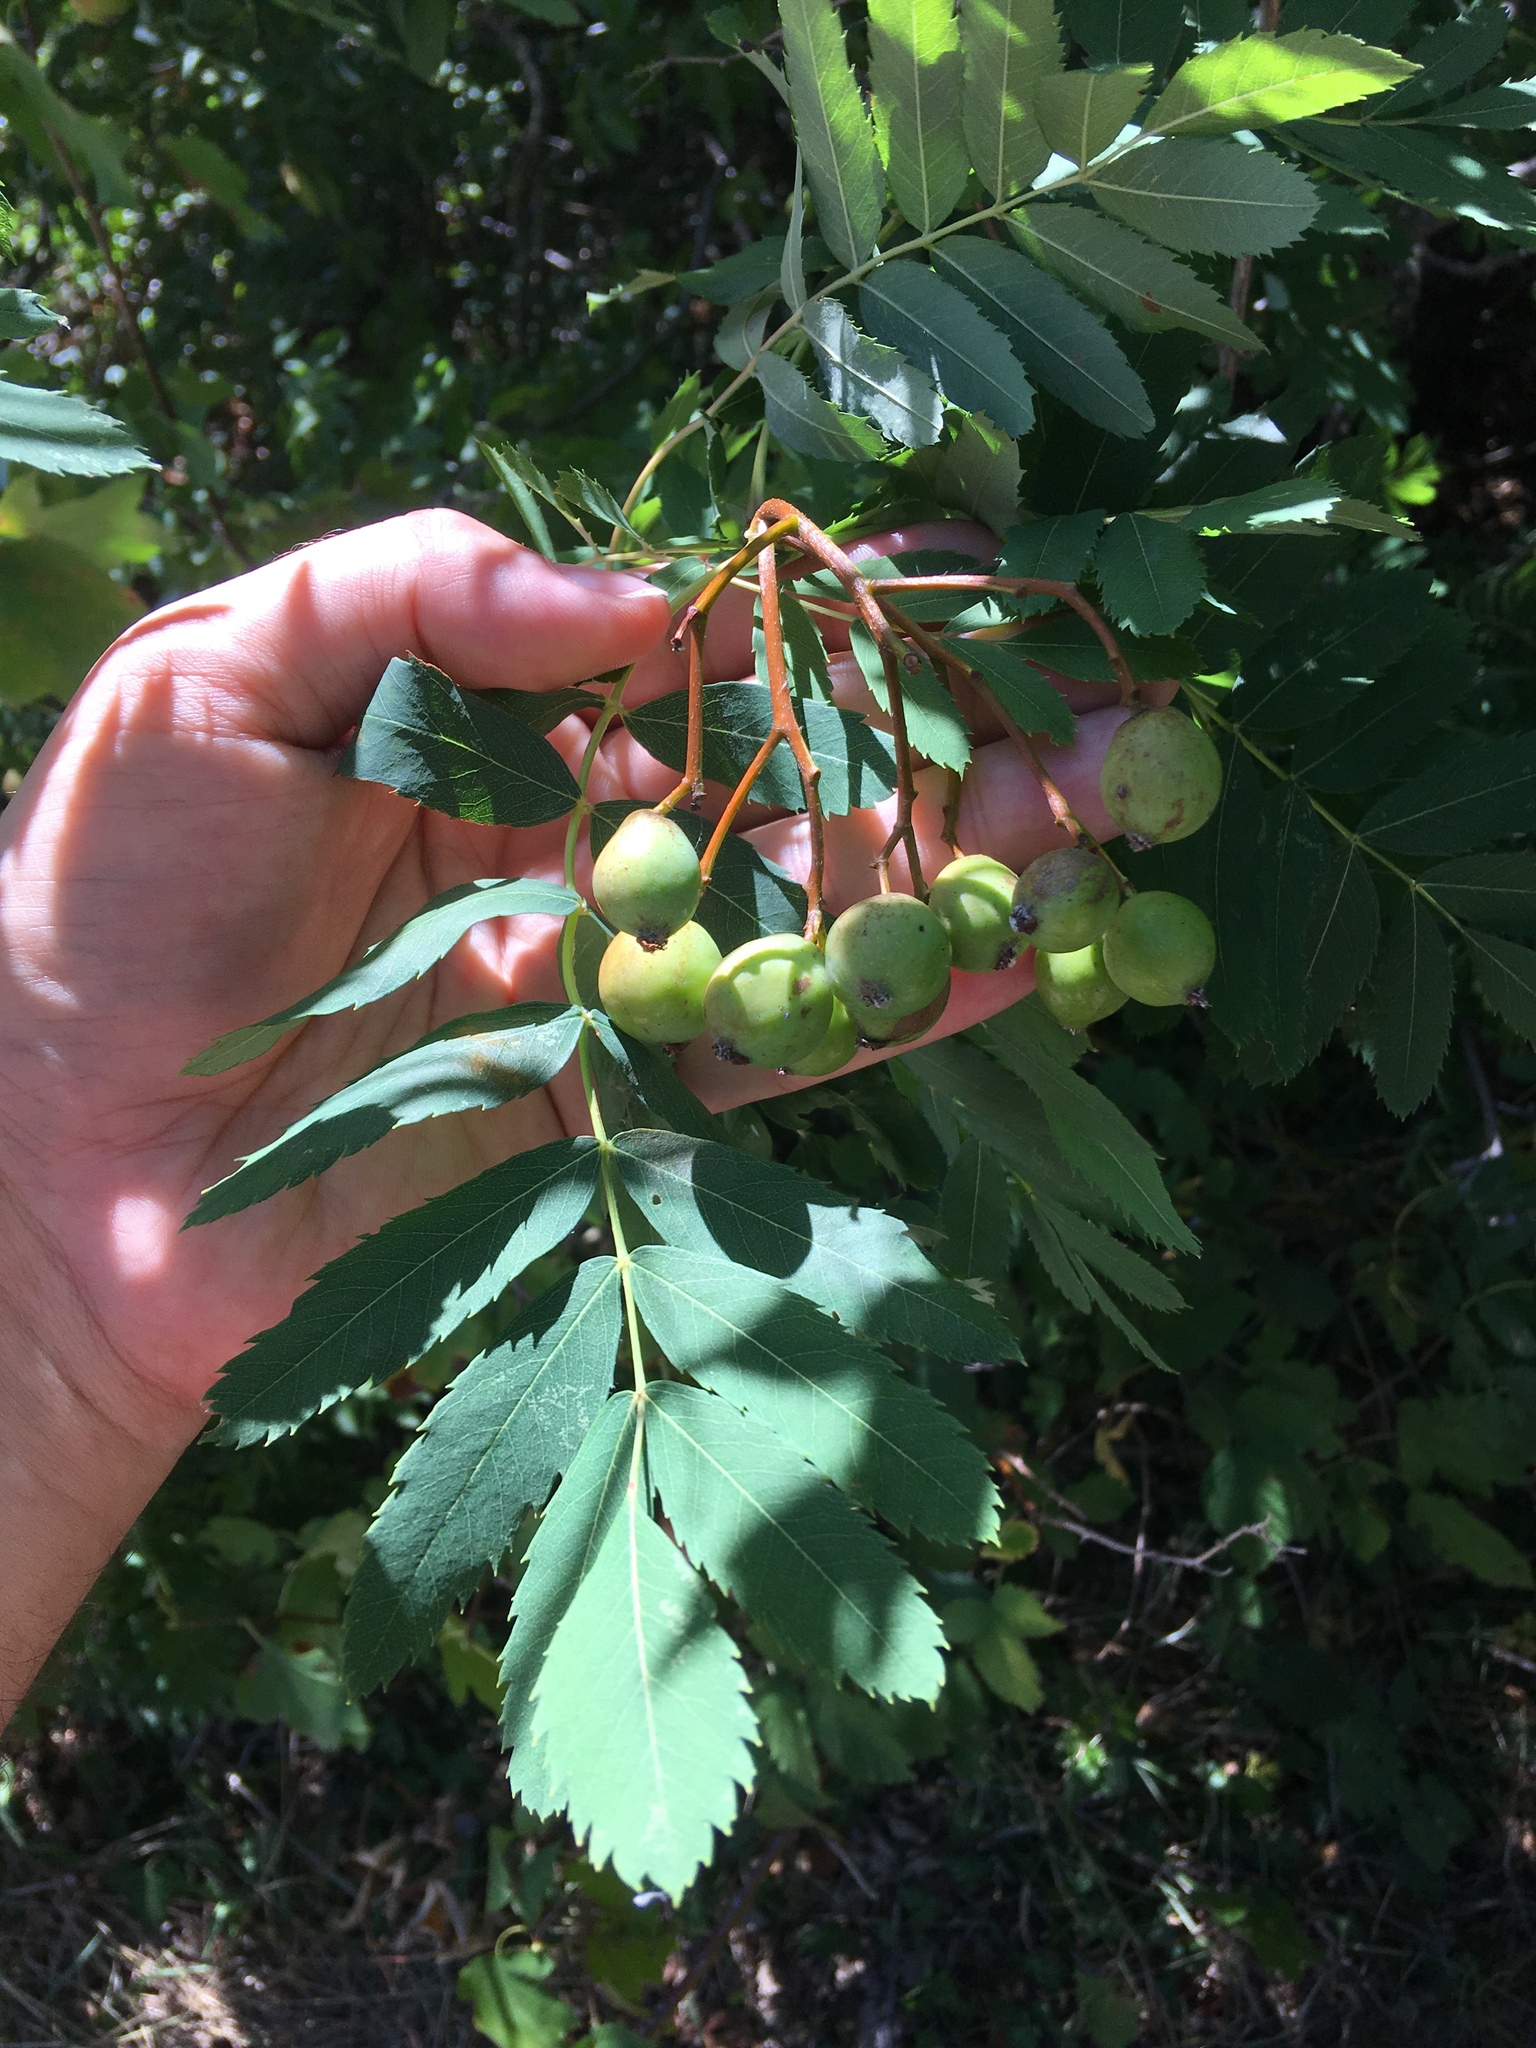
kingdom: Plantae
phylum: Tracheophyta
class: Magnoliopsida
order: Rosales
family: Rosaceae
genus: Cormus
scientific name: Cormus domestica
